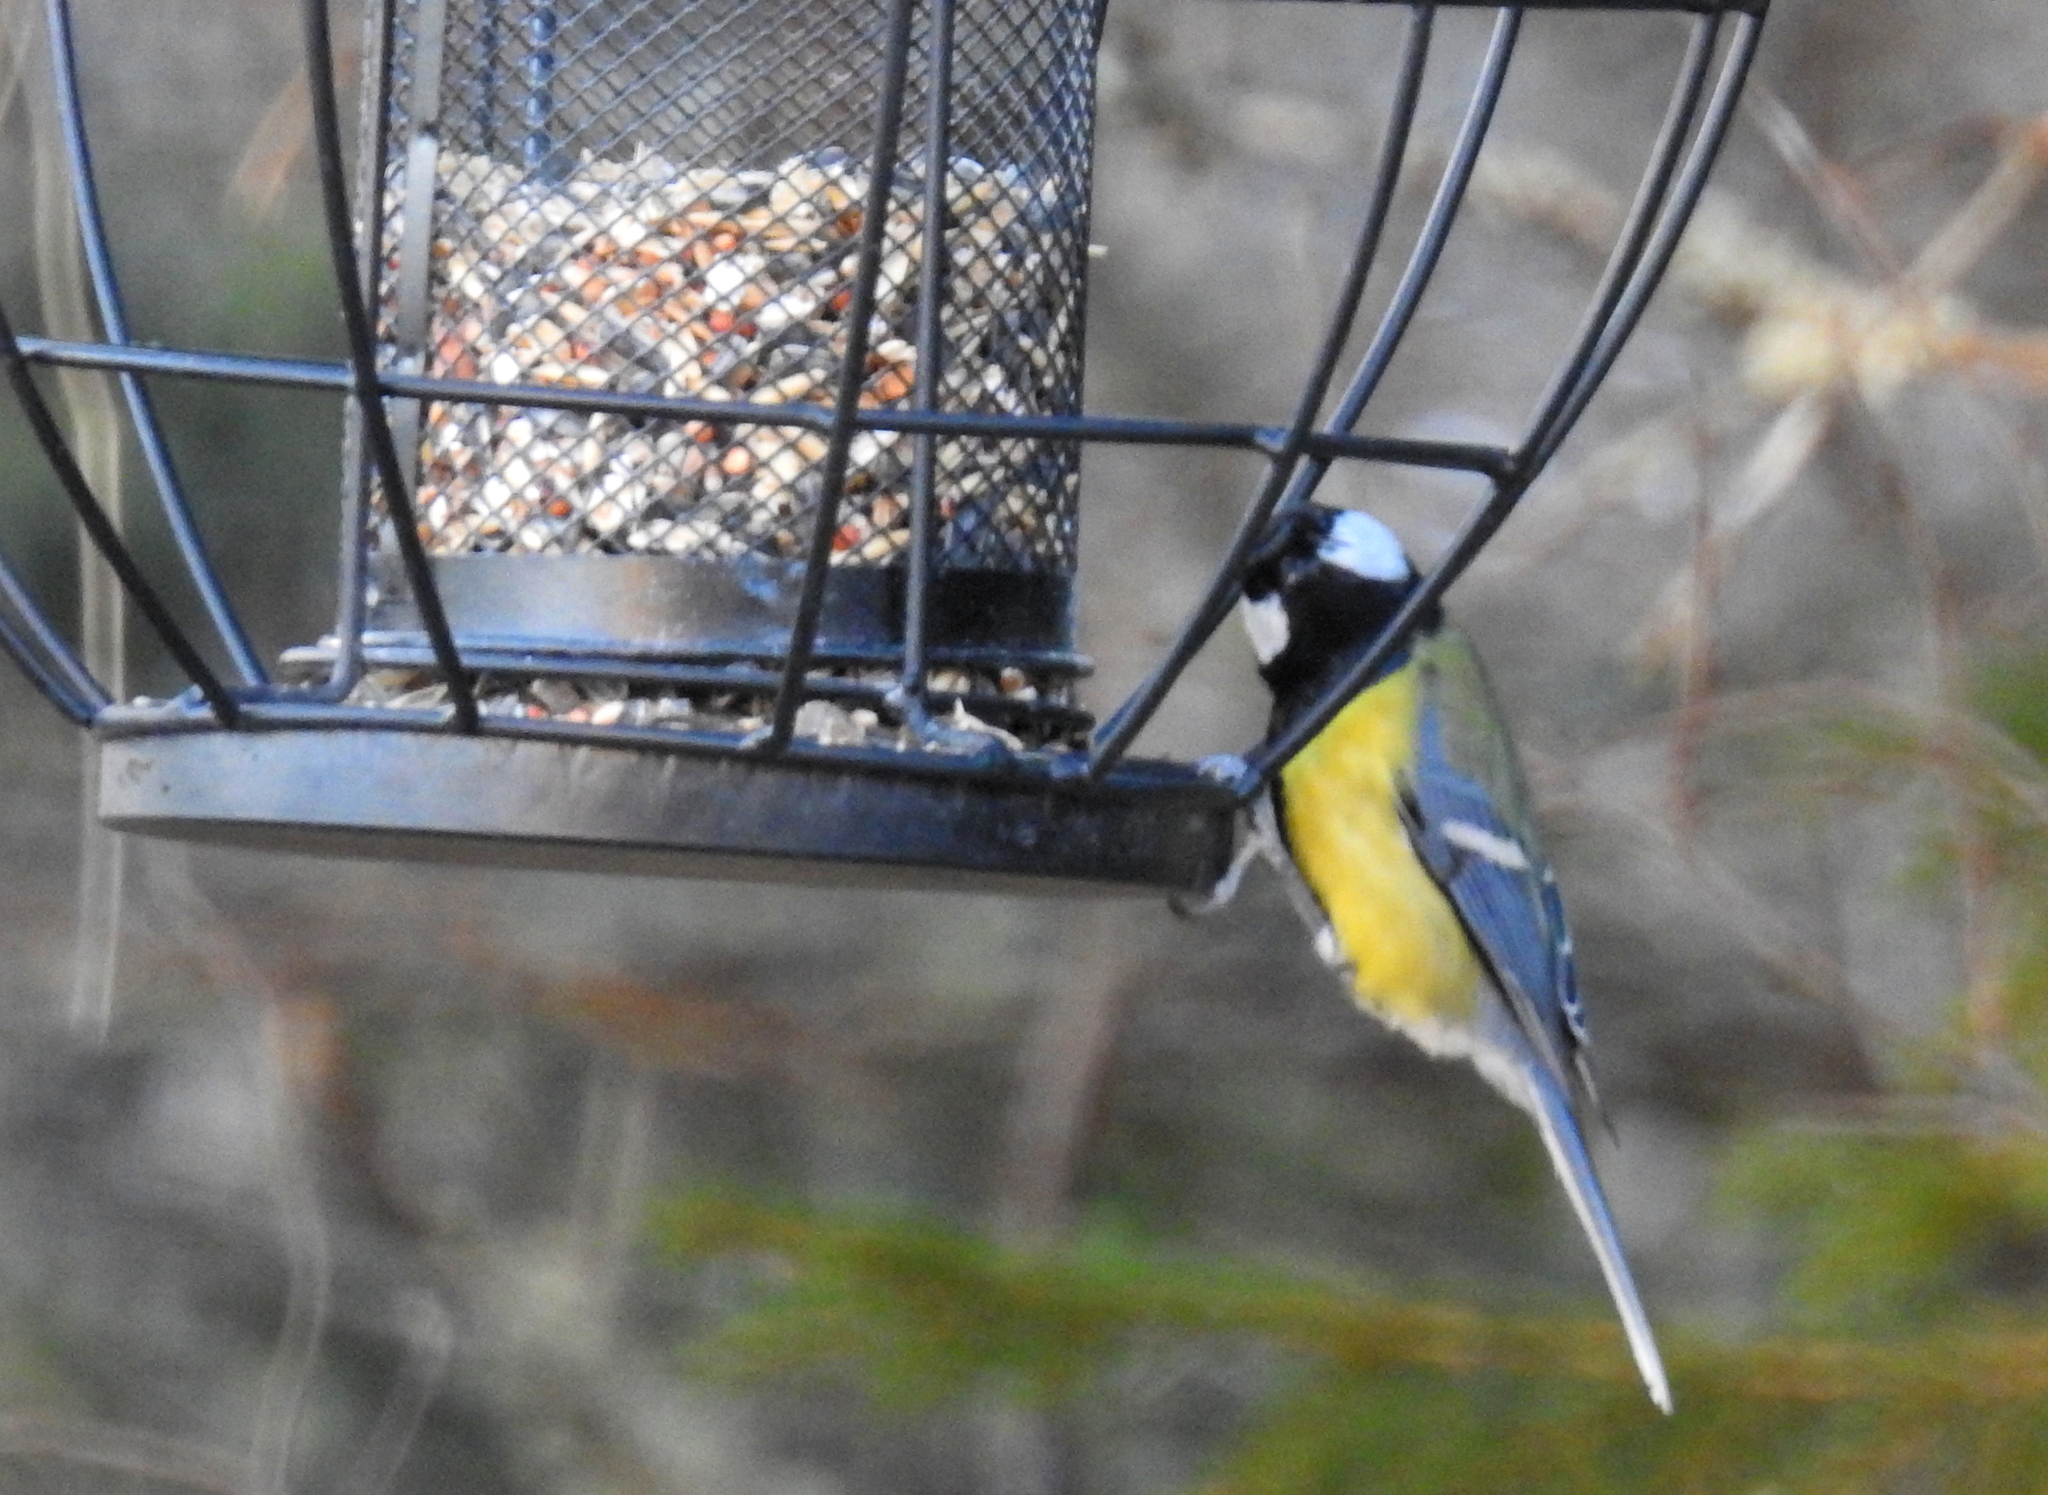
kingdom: Animalia
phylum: Chordata
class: Aves
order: Passeriformes
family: Paridae
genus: Parus
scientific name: Parus major
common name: Great tit
